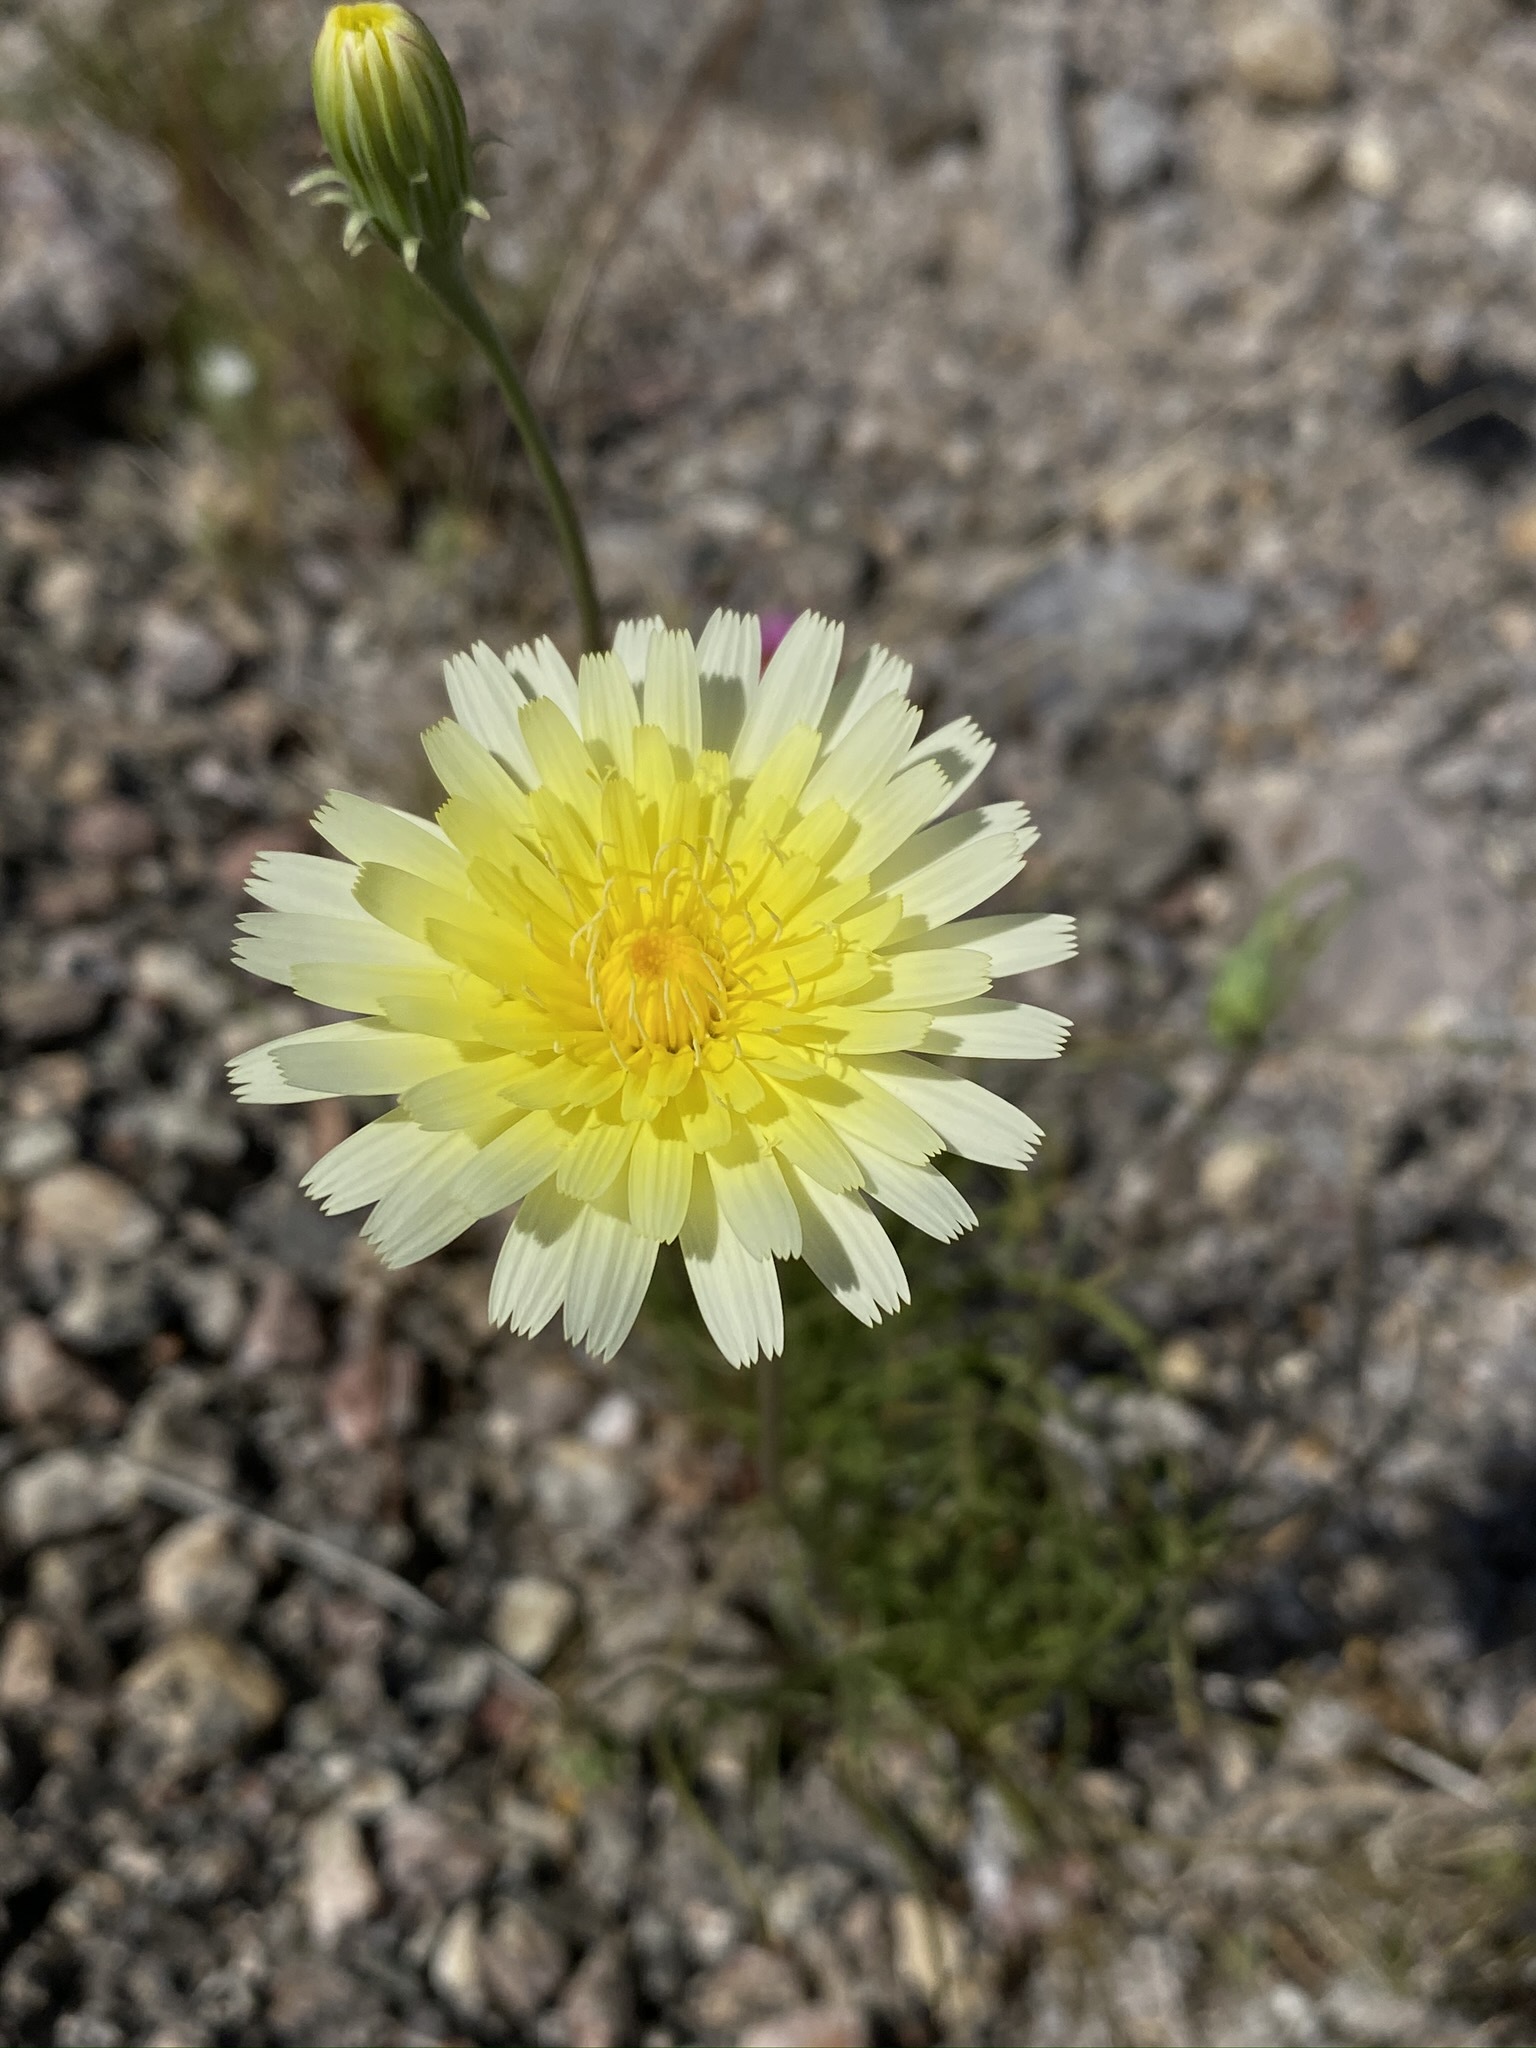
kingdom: Plantae
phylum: Tracheophyta
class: Magnoliopsida
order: Asterales
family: Asteraceae
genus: Malacothrix
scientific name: Malacothrix glabrata
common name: Smooth desert-dandelion
